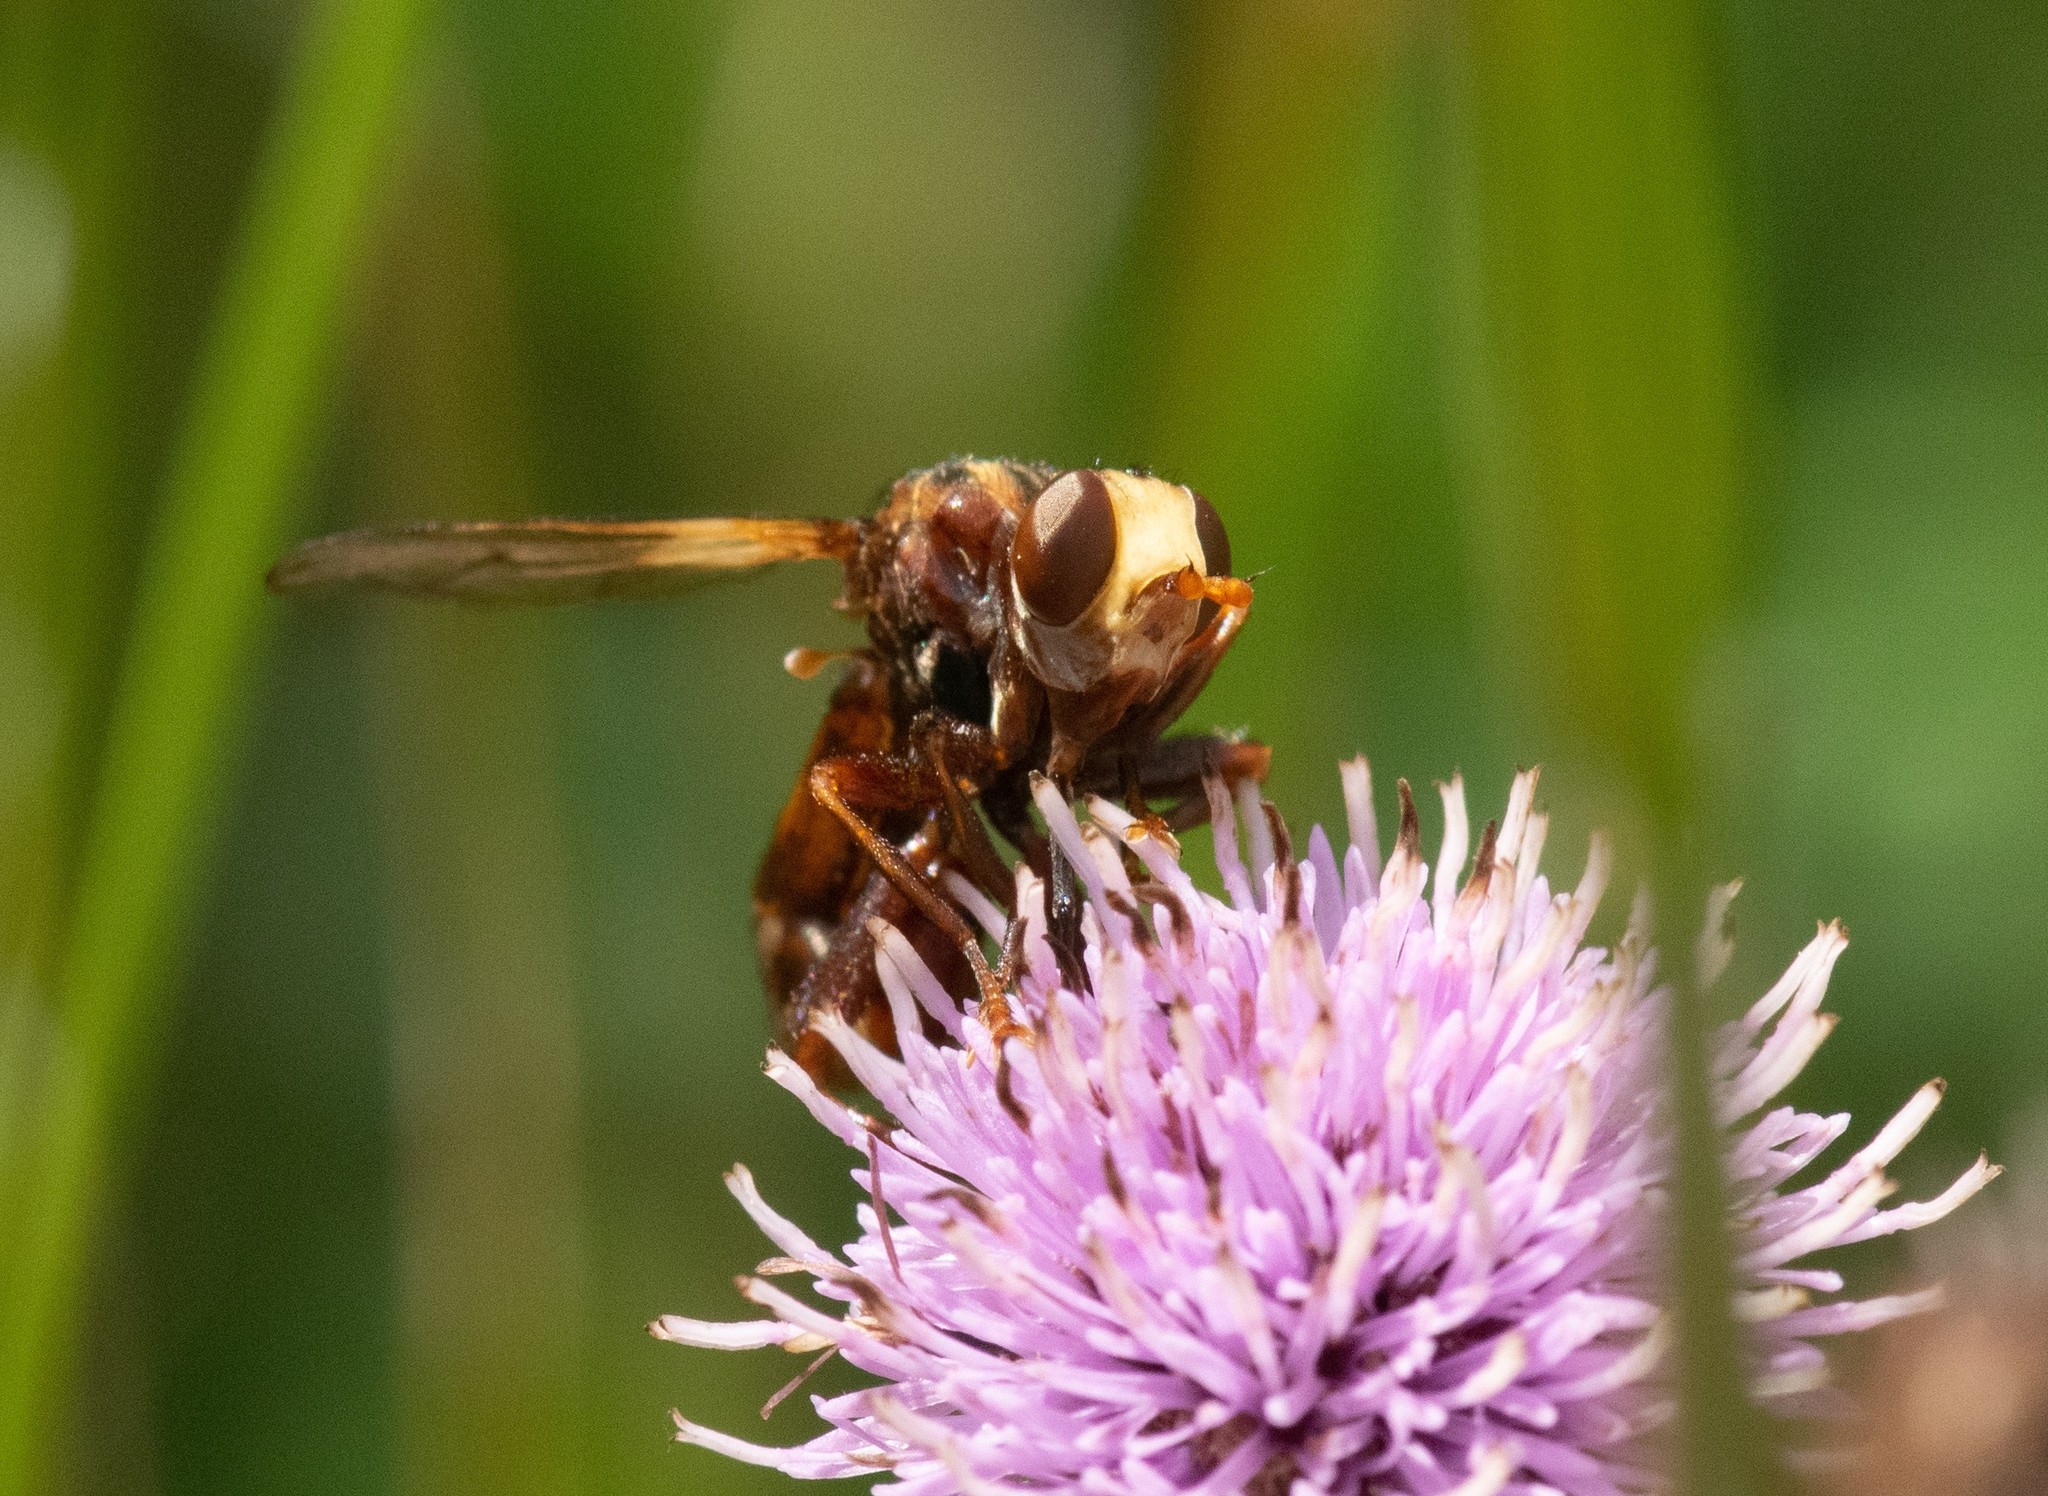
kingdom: Animalia
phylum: Arthropoda
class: Insecta
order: Diptera
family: Conopidae
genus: Sicus
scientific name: Sicus ferrugineus
